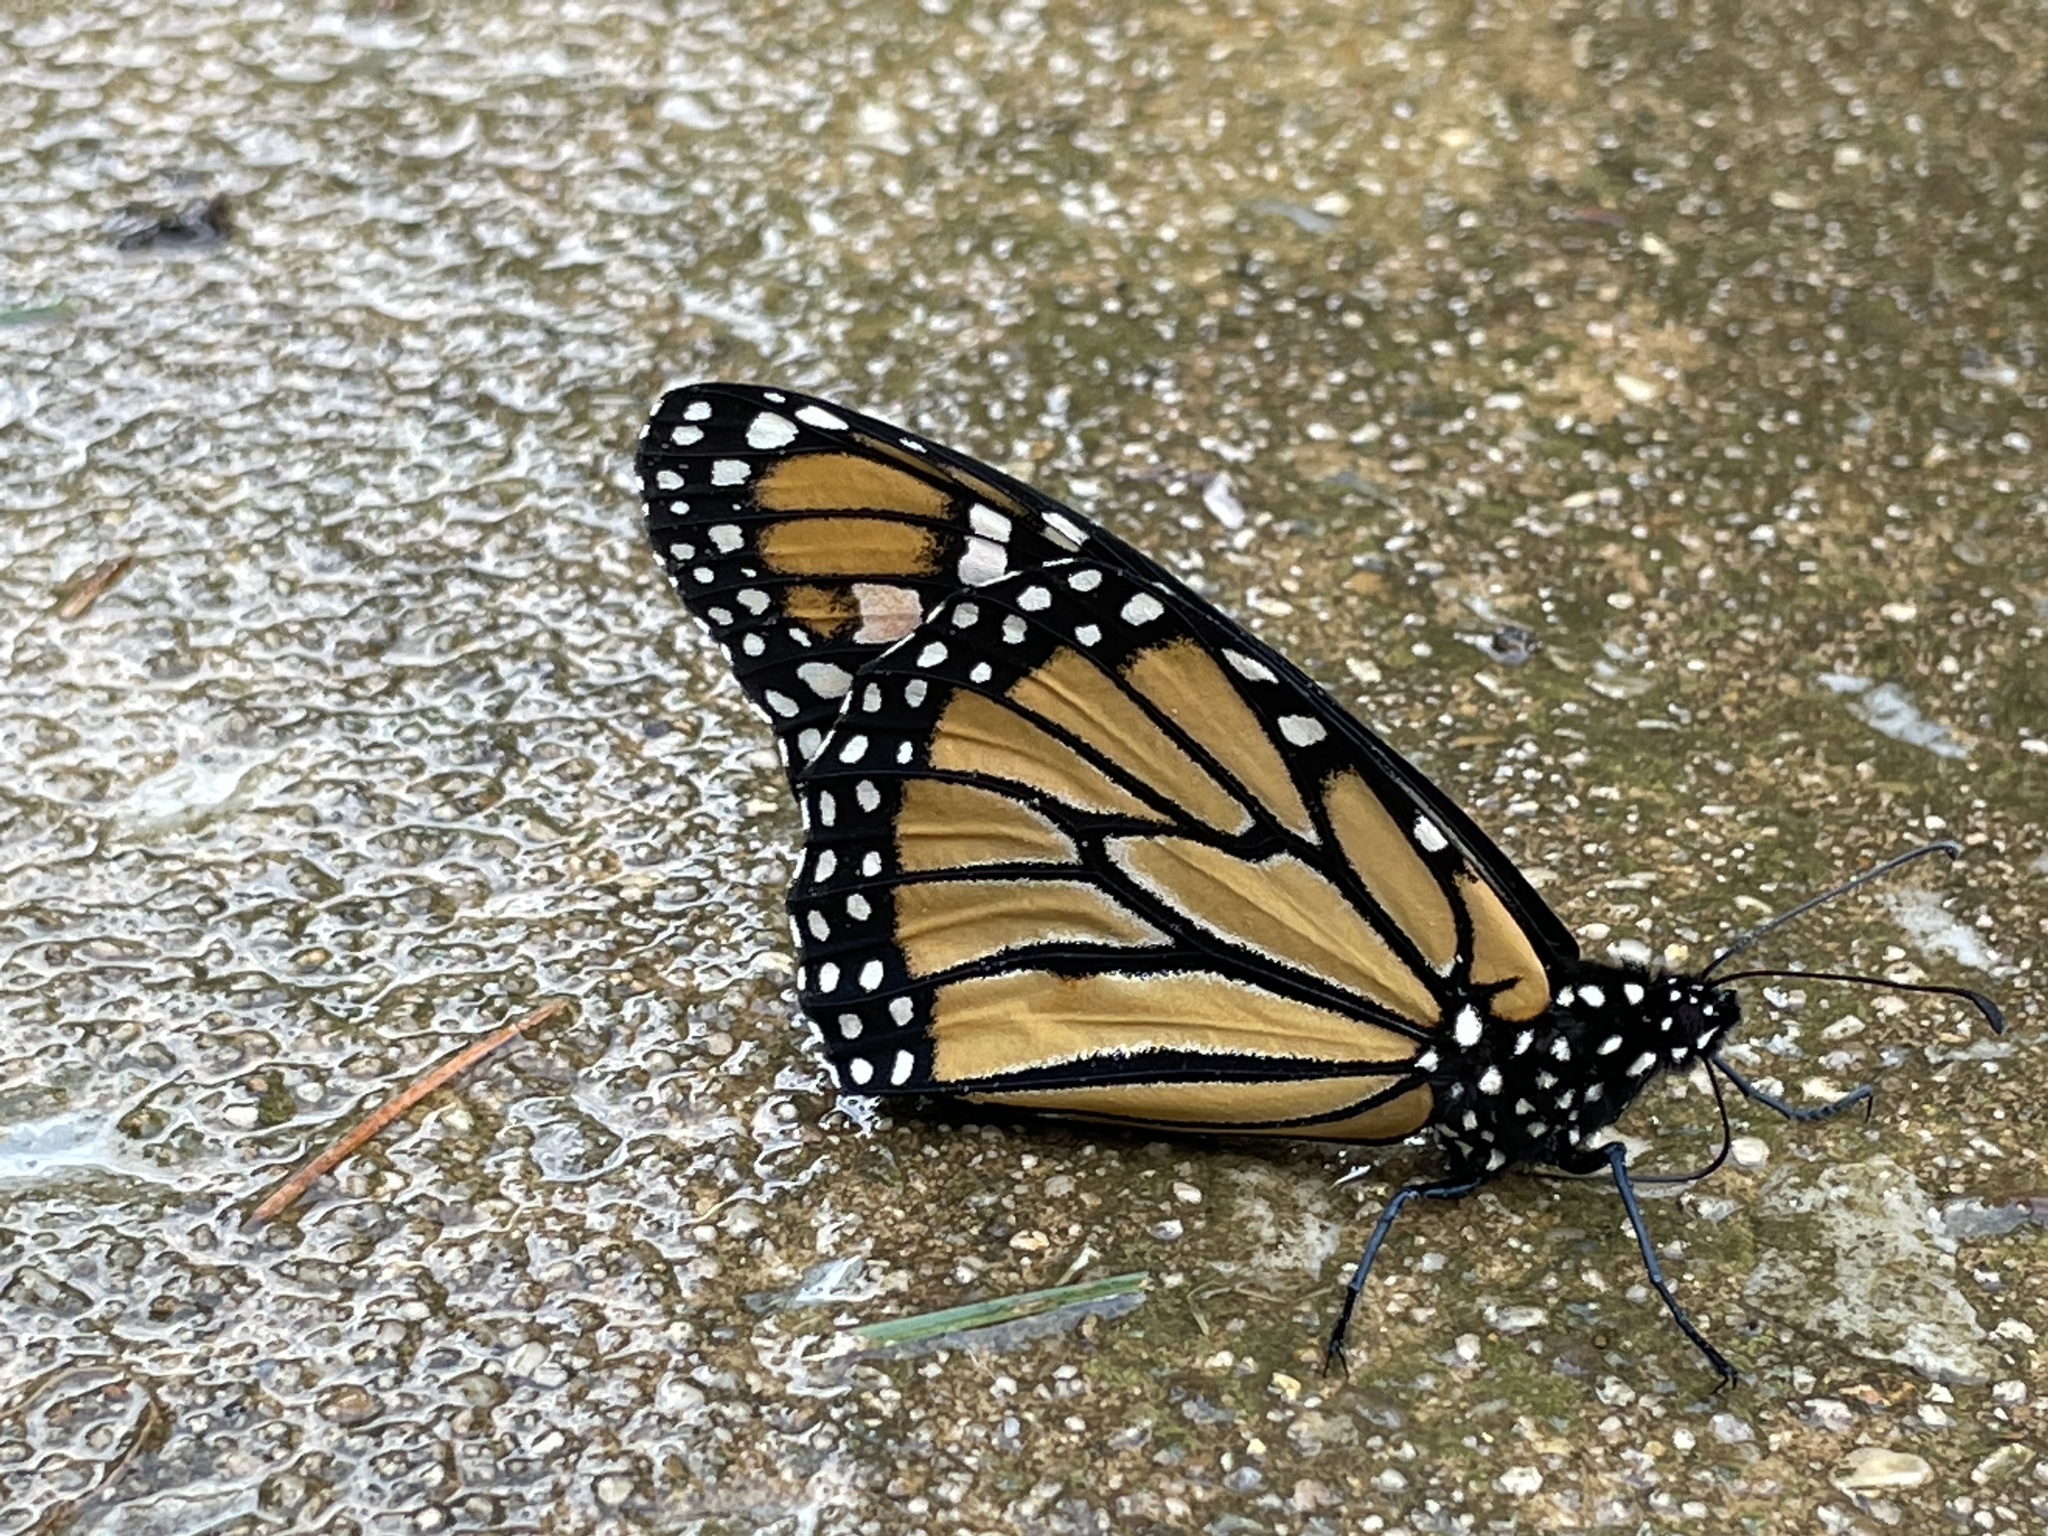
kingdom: Animalia
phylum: Arthropoda
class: Insecta
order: Lepidoptera
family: Nymphalidae
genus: Danaus
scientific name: Danaus plexippus
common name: Monarch
